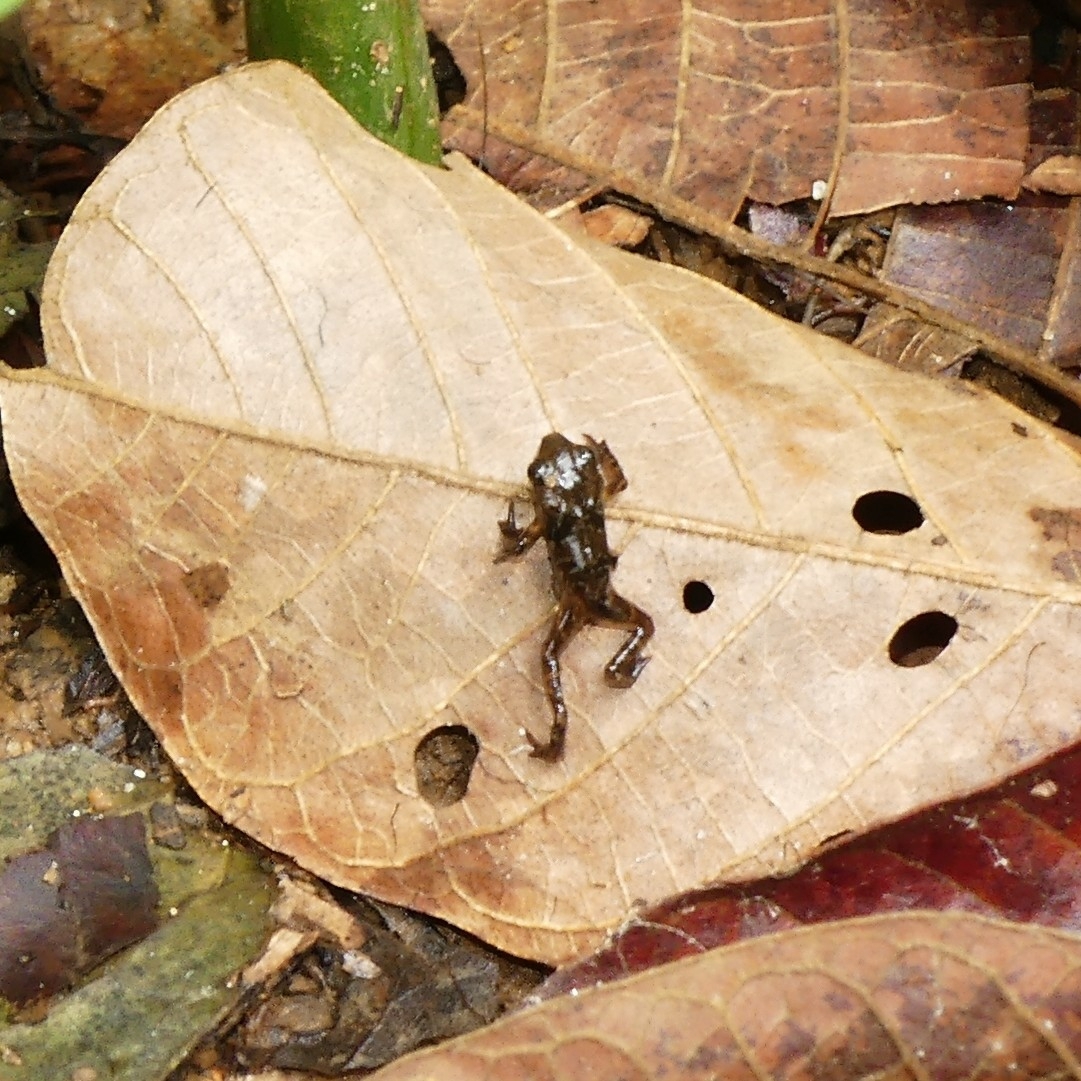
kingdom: Animalia
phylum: Chordata
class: Amphibia
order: Anura
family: Bufonidae
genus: Rhinella
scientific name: Rhinella
